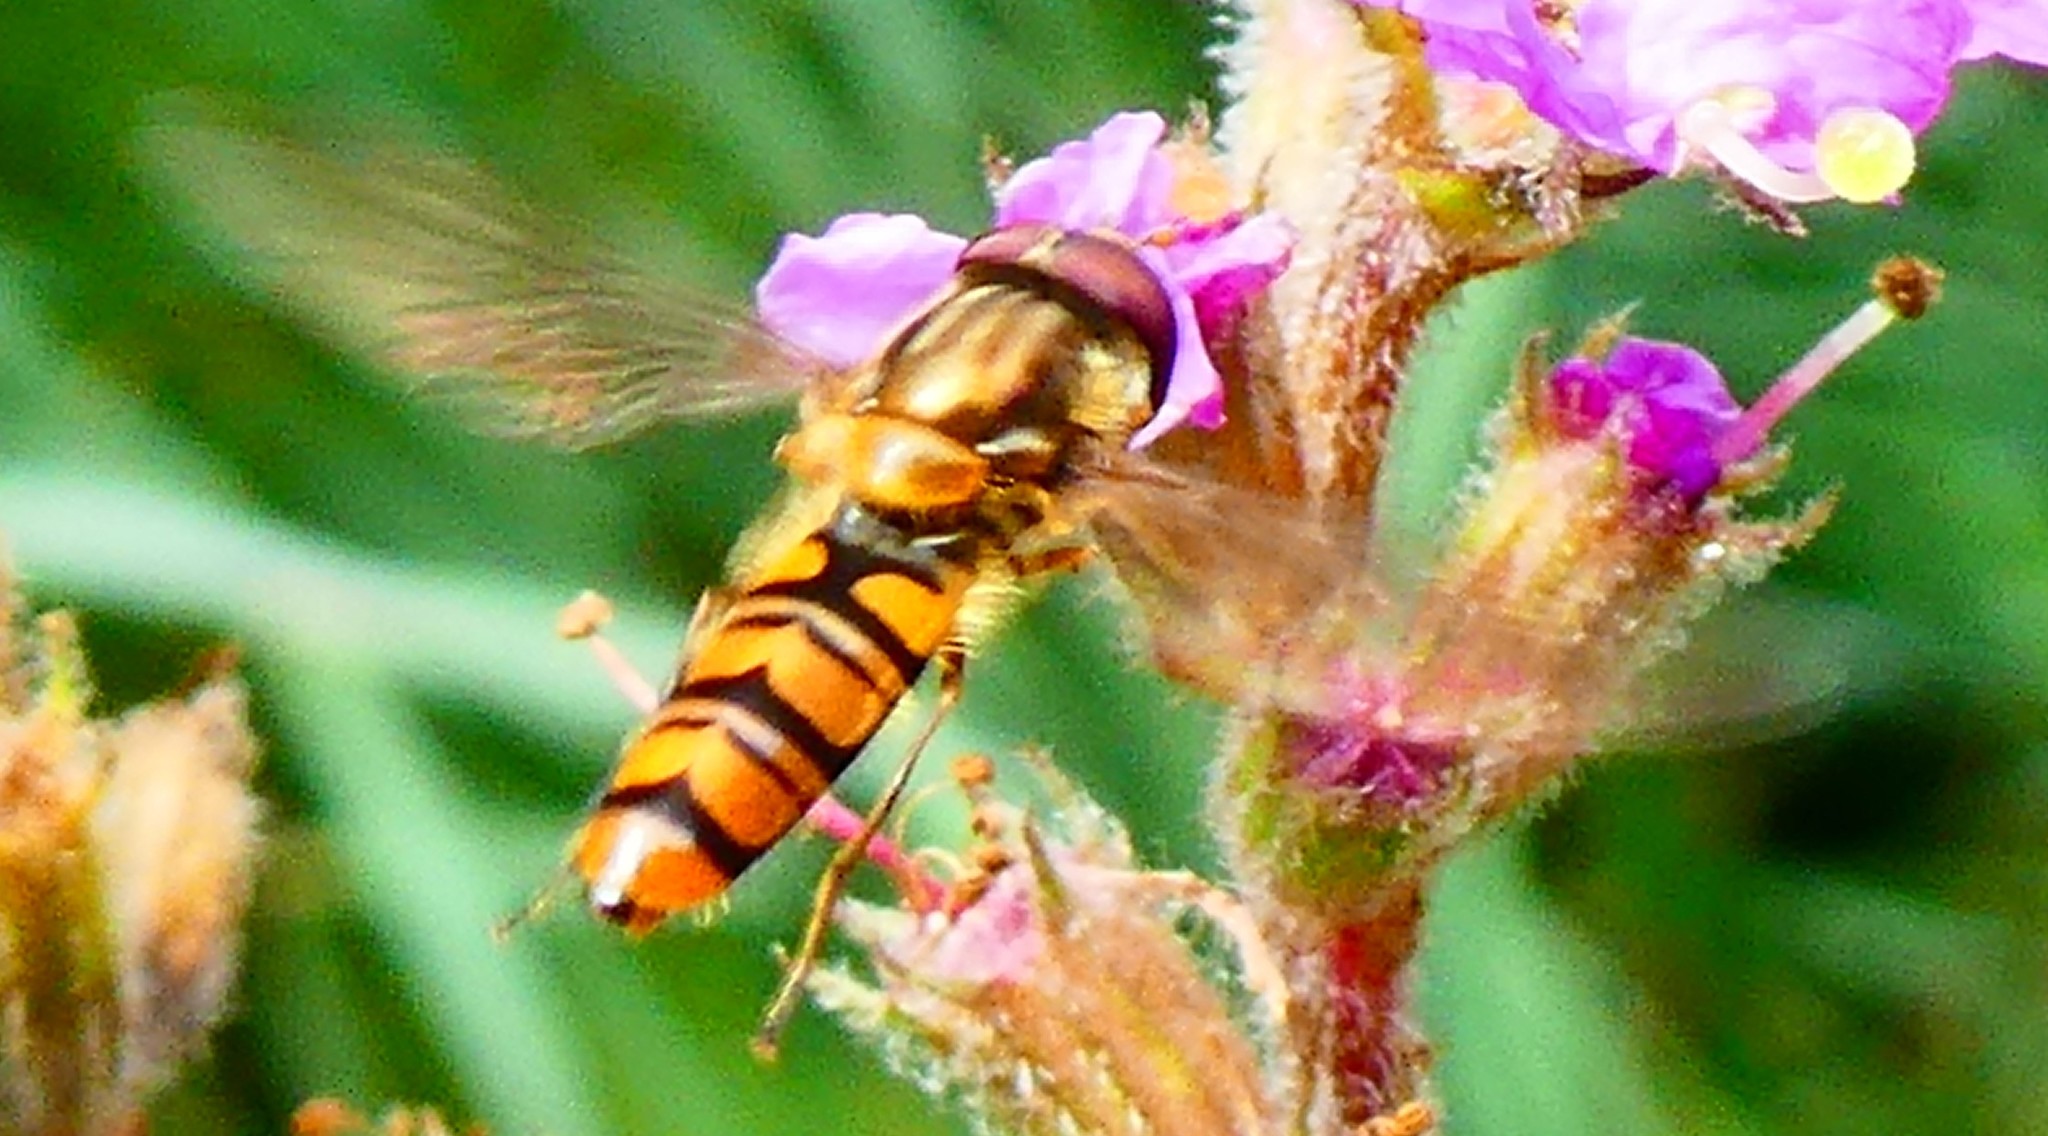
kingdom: Animalia
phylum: Arthropoda
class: Insecta
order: Diptera
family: Syrphidae
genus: Episyrphus
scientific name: Episyrphus balteatus
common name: Marmalade hoverfly
